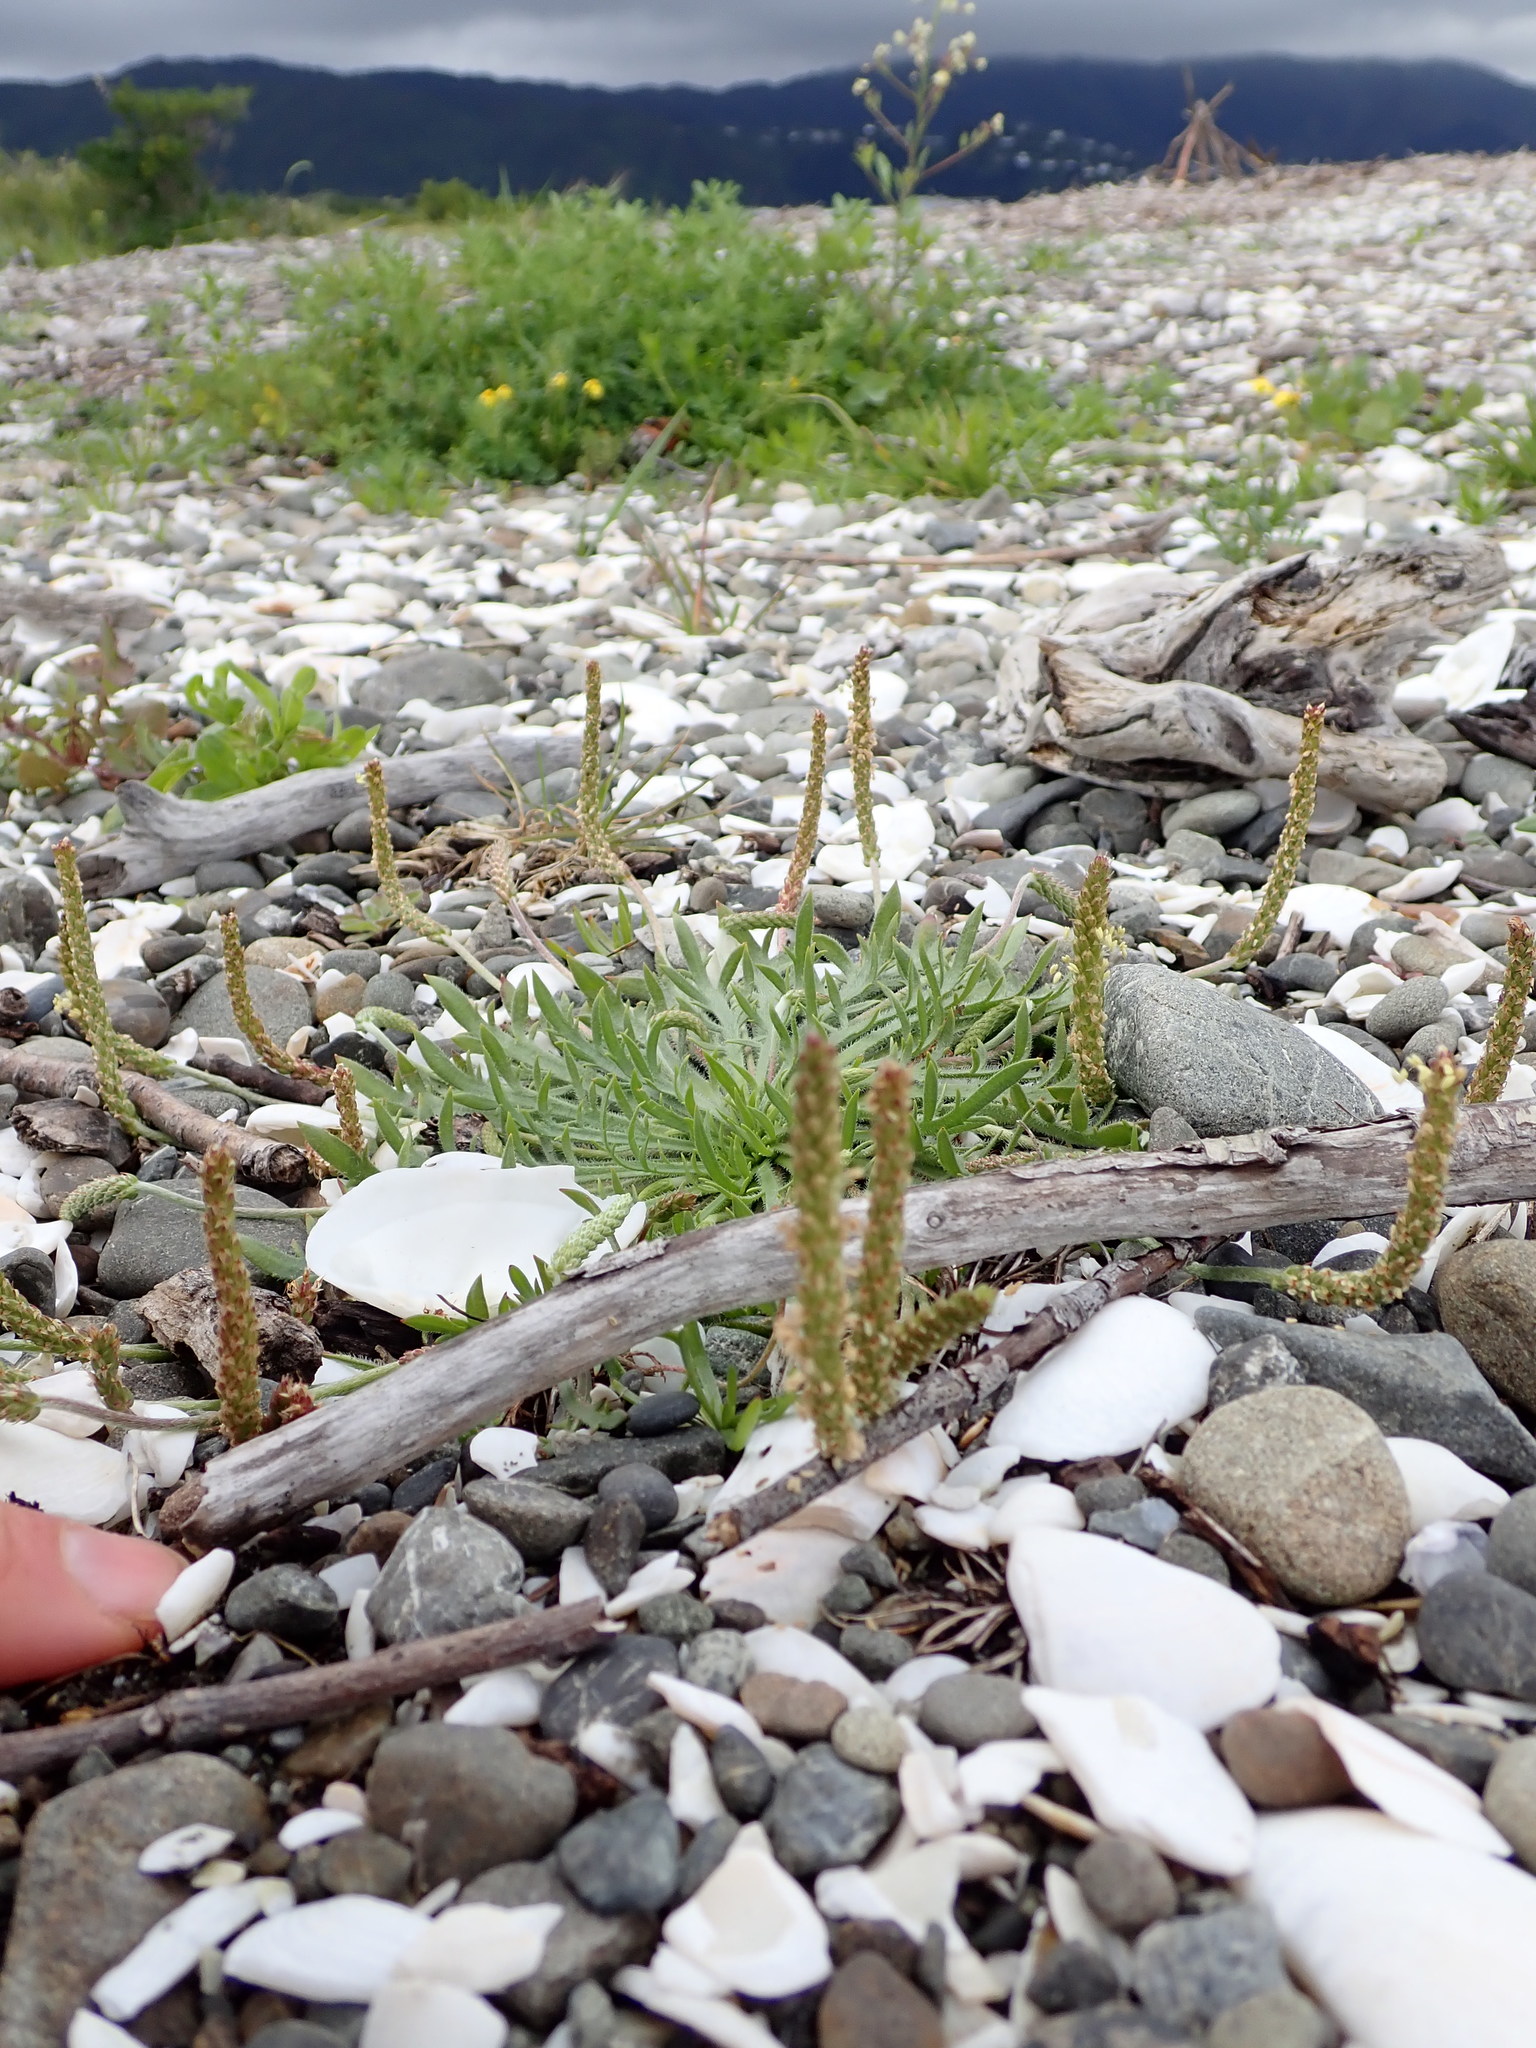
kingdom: Plantae
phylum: Tracheophyta
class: Magnoliopsida
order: Lamiales
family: Plantaginaceae
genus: Plantago
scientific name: Plantago coronopus
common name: Buck's-horn plantain
